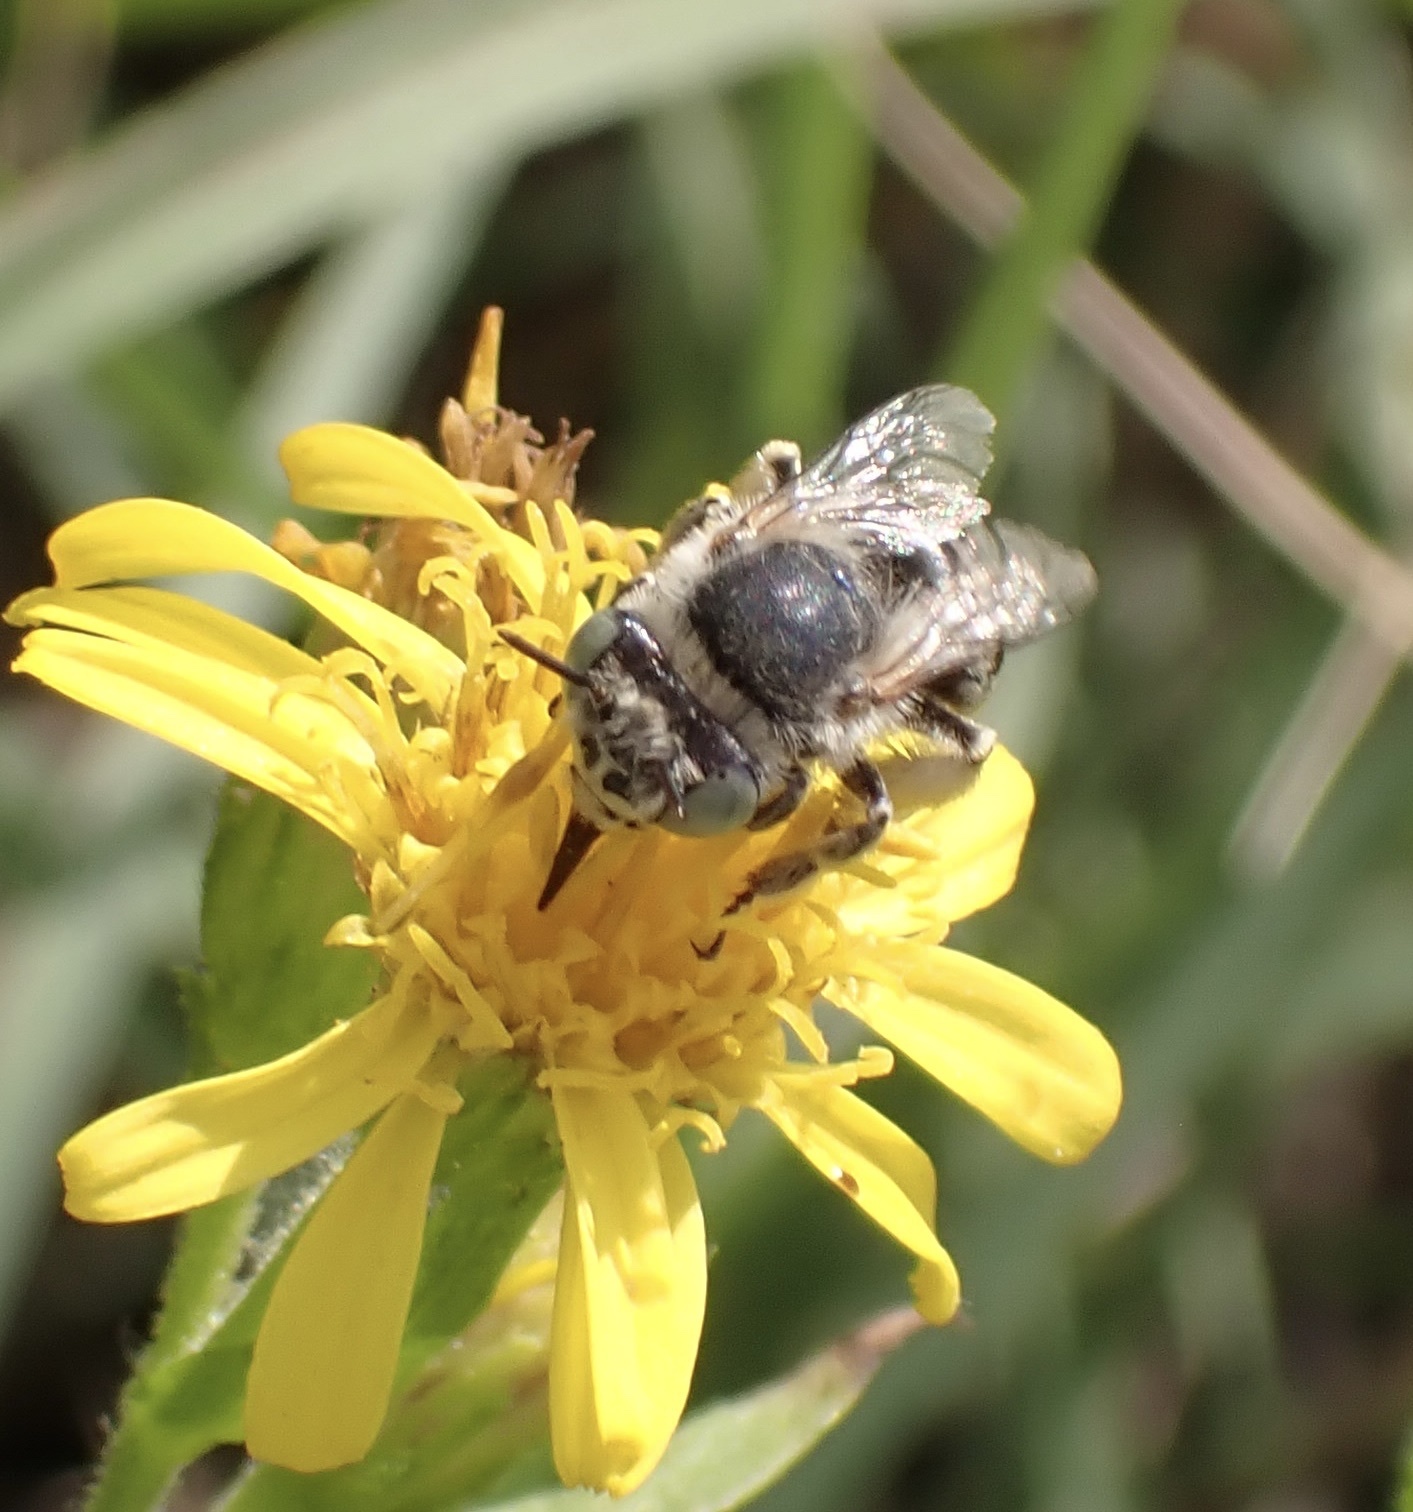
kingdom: Animalia
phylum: Arthropoda
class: Insecta
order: Hymenoptera
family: Apidae
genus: Anthophora
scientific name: Anthophora bimaculata
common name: Green-eyed flower bee
